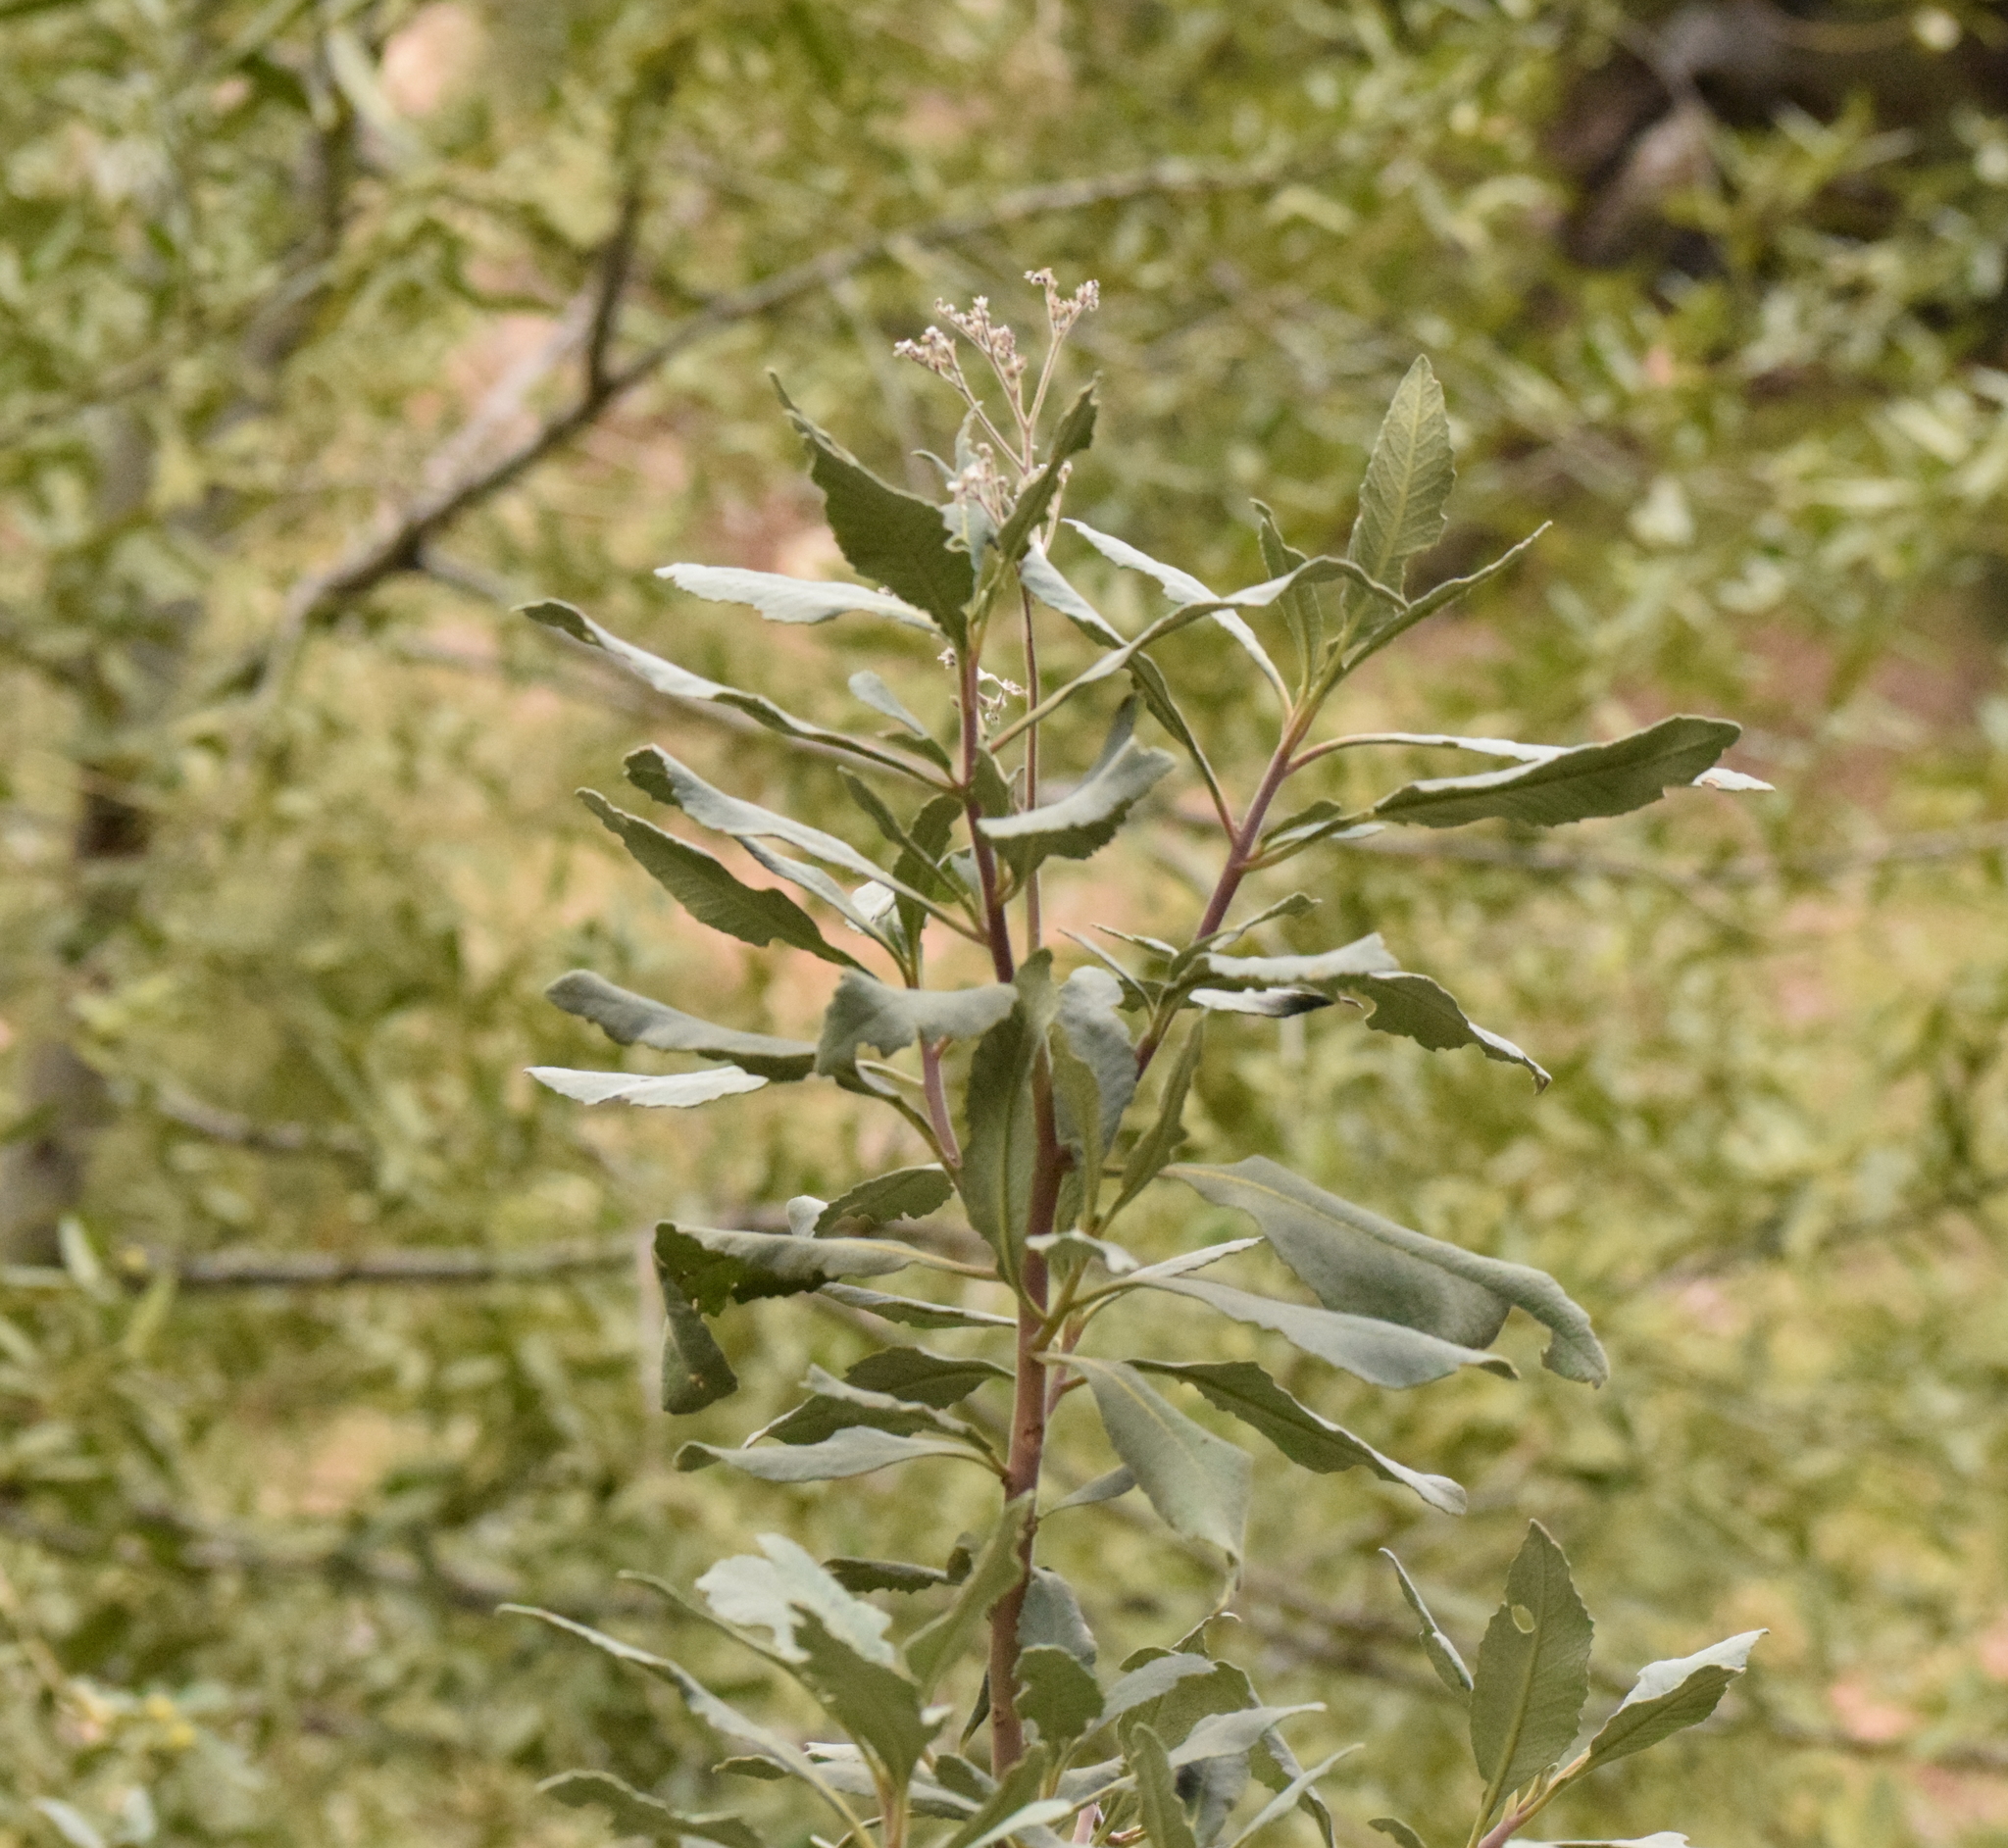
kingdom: Plantae
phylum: Tracheophyta
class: Magnoliopsida
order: Boraginales
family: Namaceae
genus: Eriodictyon
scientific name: Eriodictyon crassifolium
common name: Thick-leaf yerba-santa
